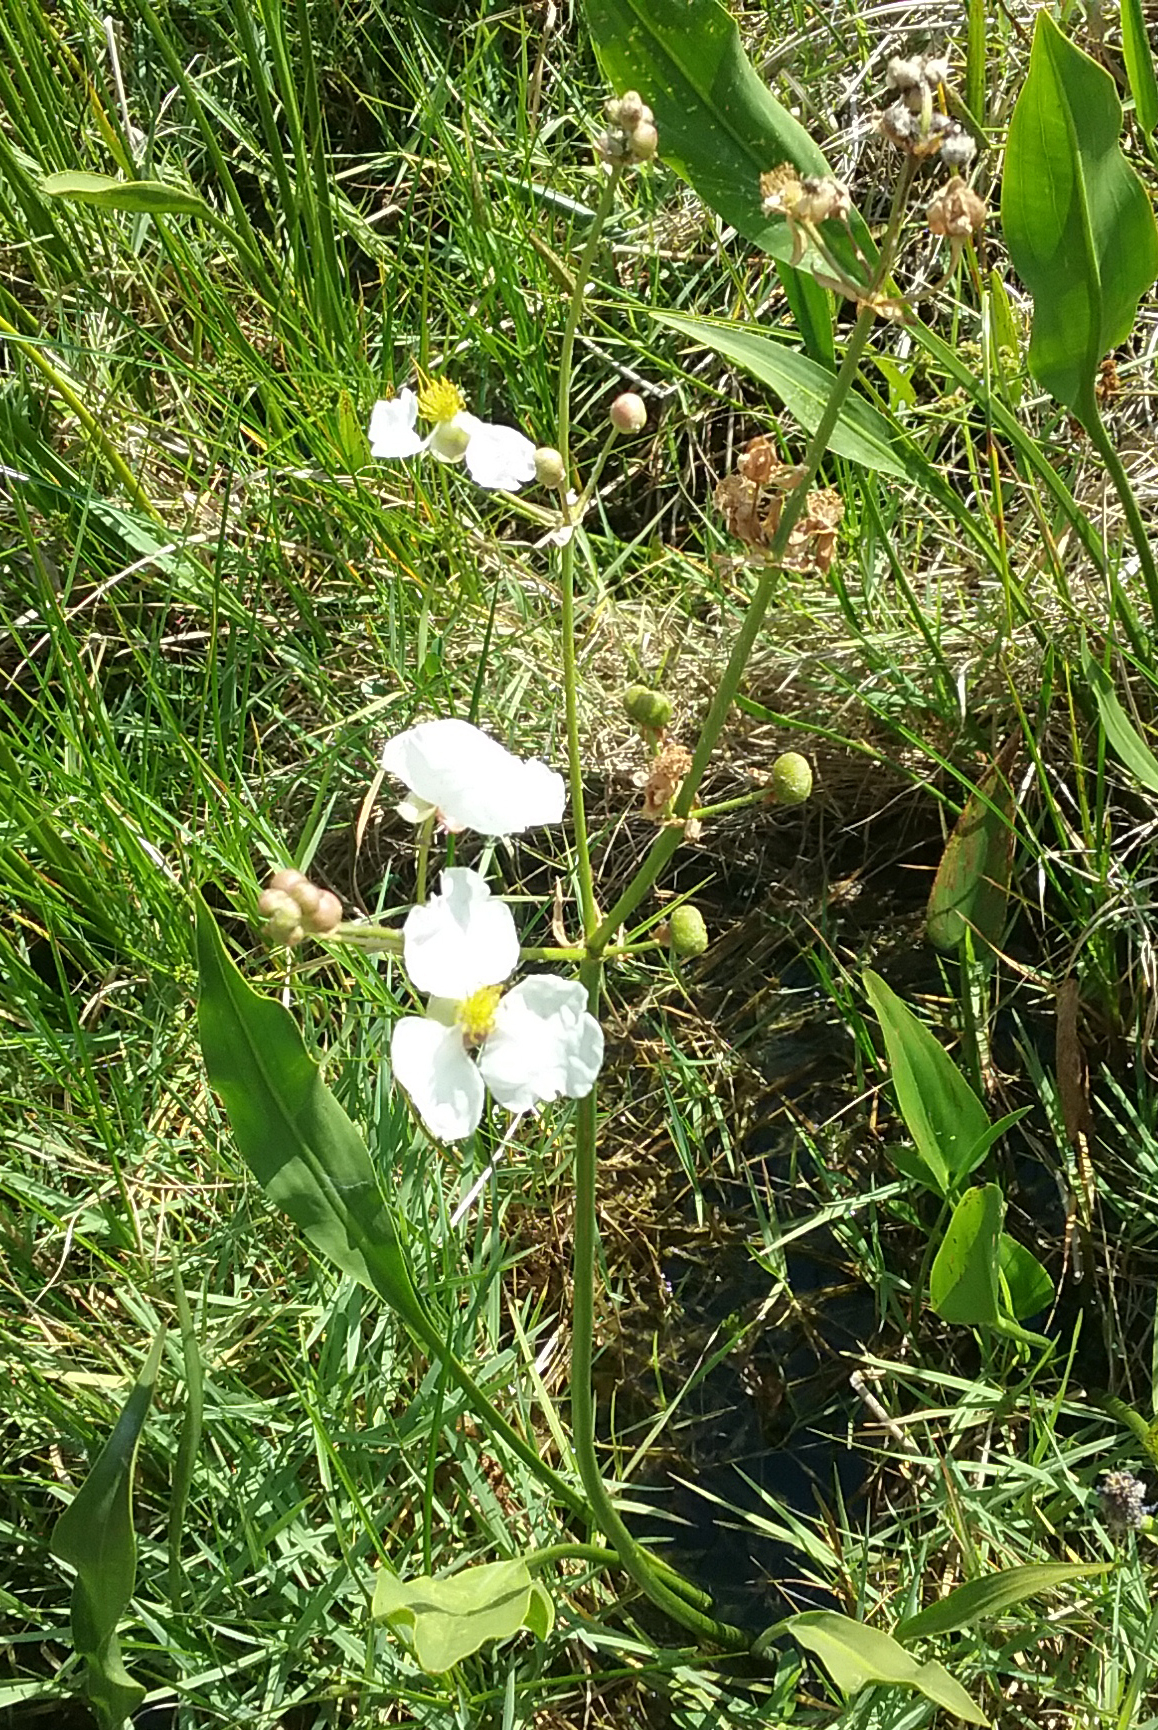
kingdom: Plantae
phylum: Tracheophyta
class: Liliopsida
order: Alismatales
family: Alismataceae
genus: Sagittaria
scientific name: Sagittaria lancifolia
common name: Lance-leaf arrowhead
